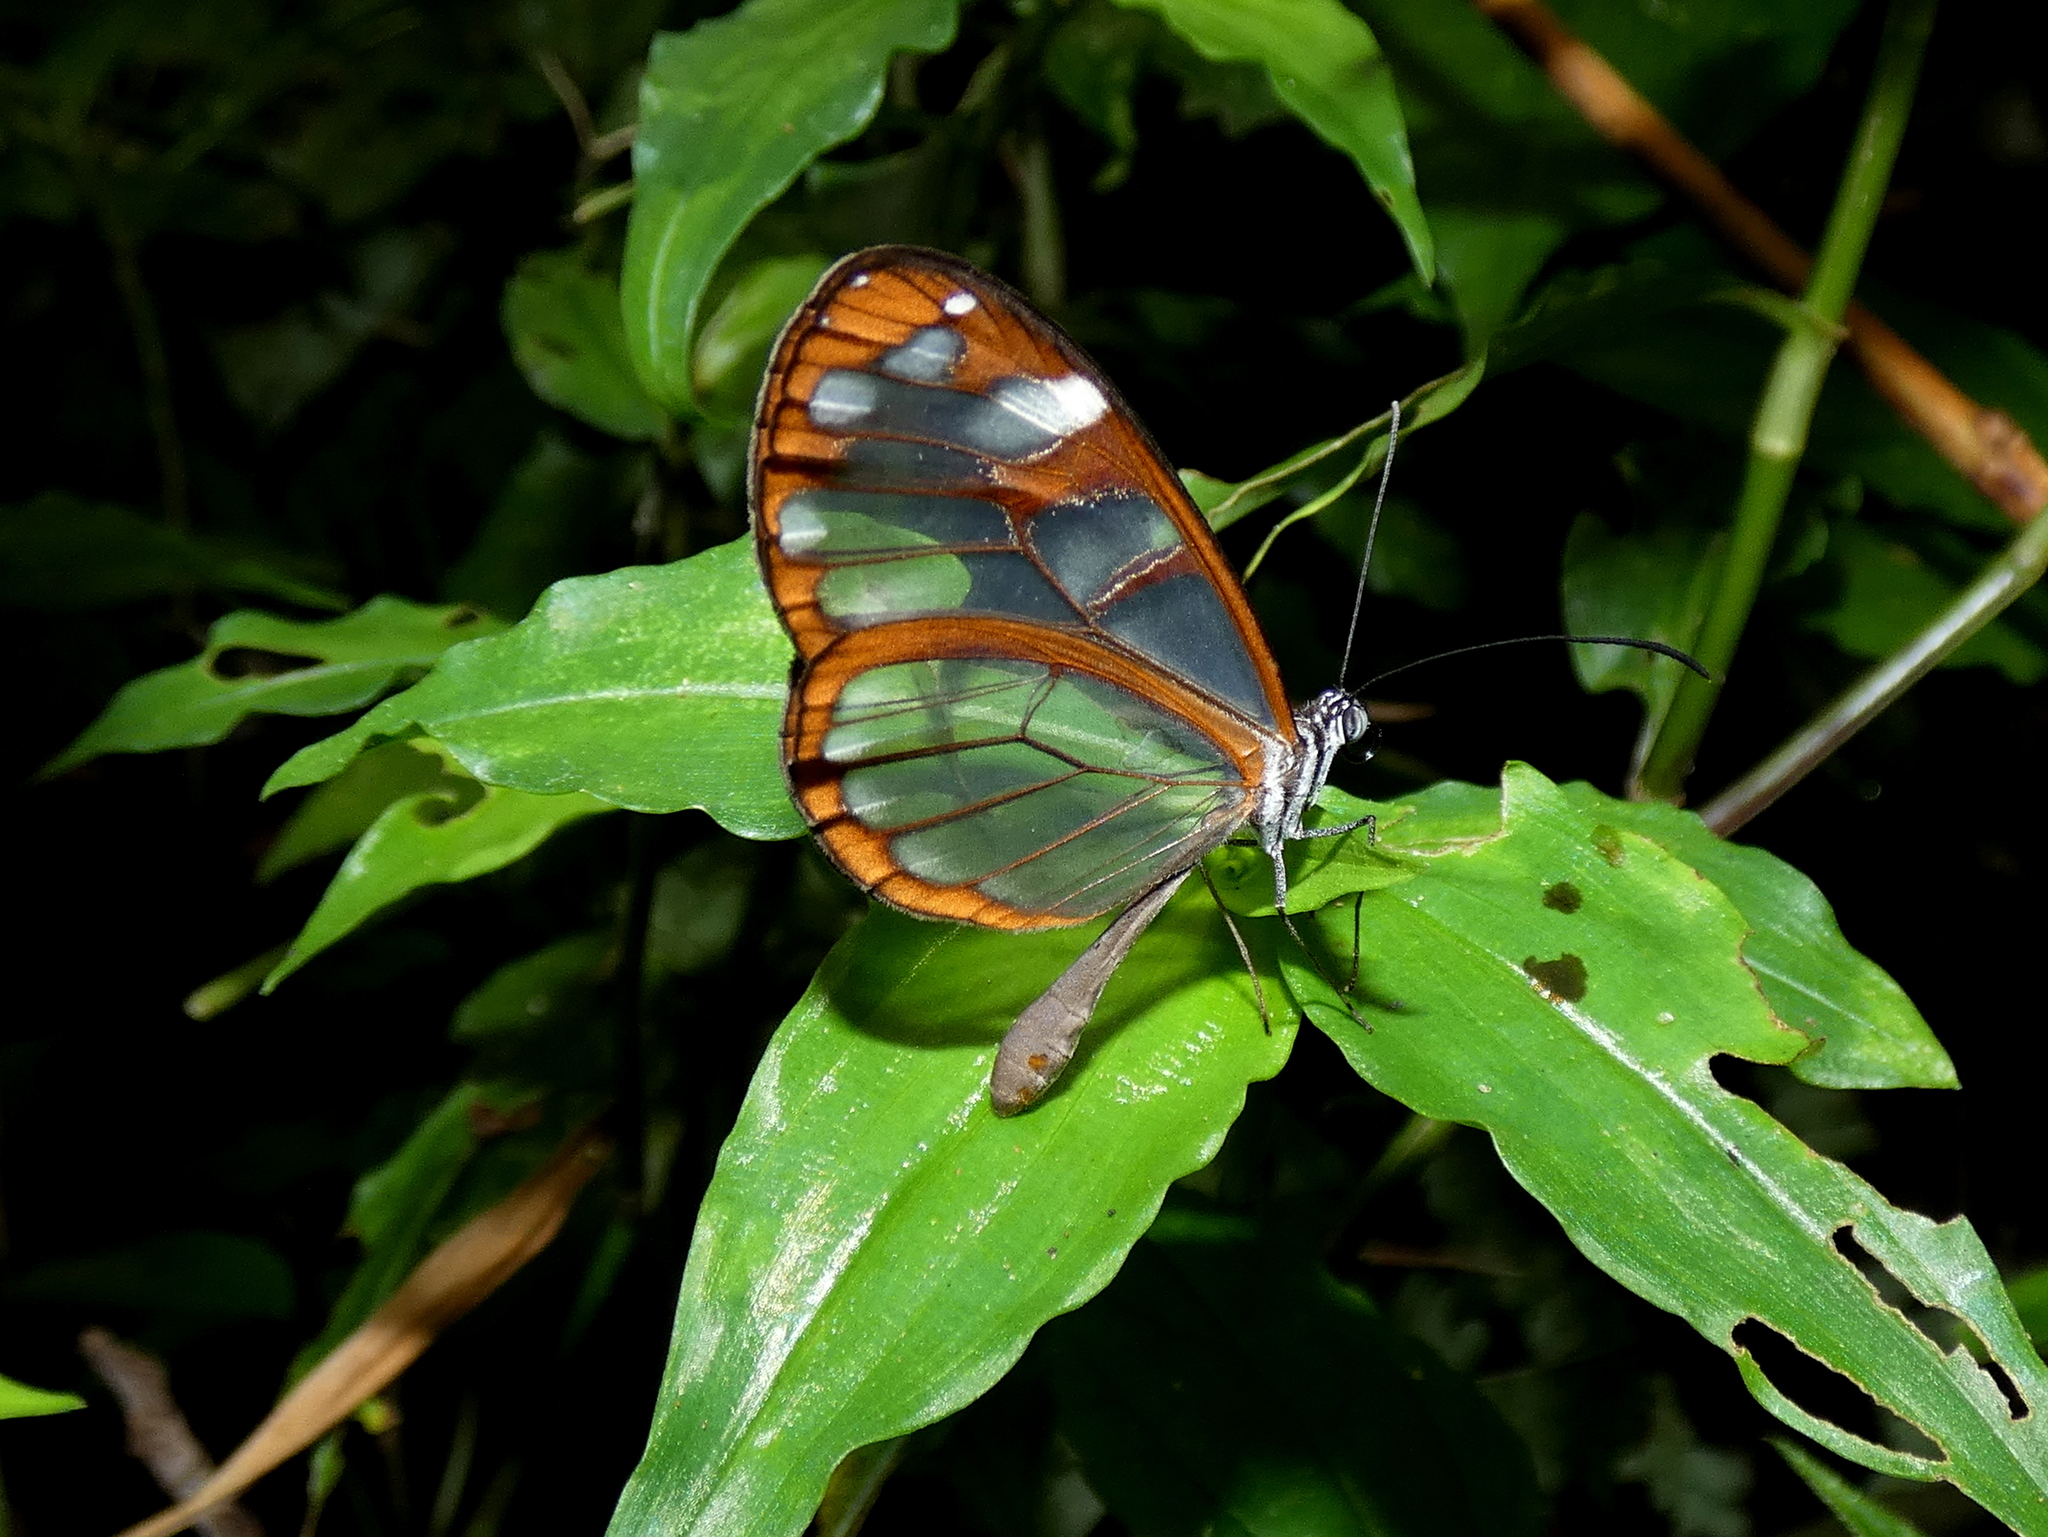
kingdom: Animalia
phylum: Arthropoda
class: Insecta
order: Lepidoptera
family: Nymphalidae
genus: Oleria
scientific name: Oleria vicina
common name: Vicina clearwing
